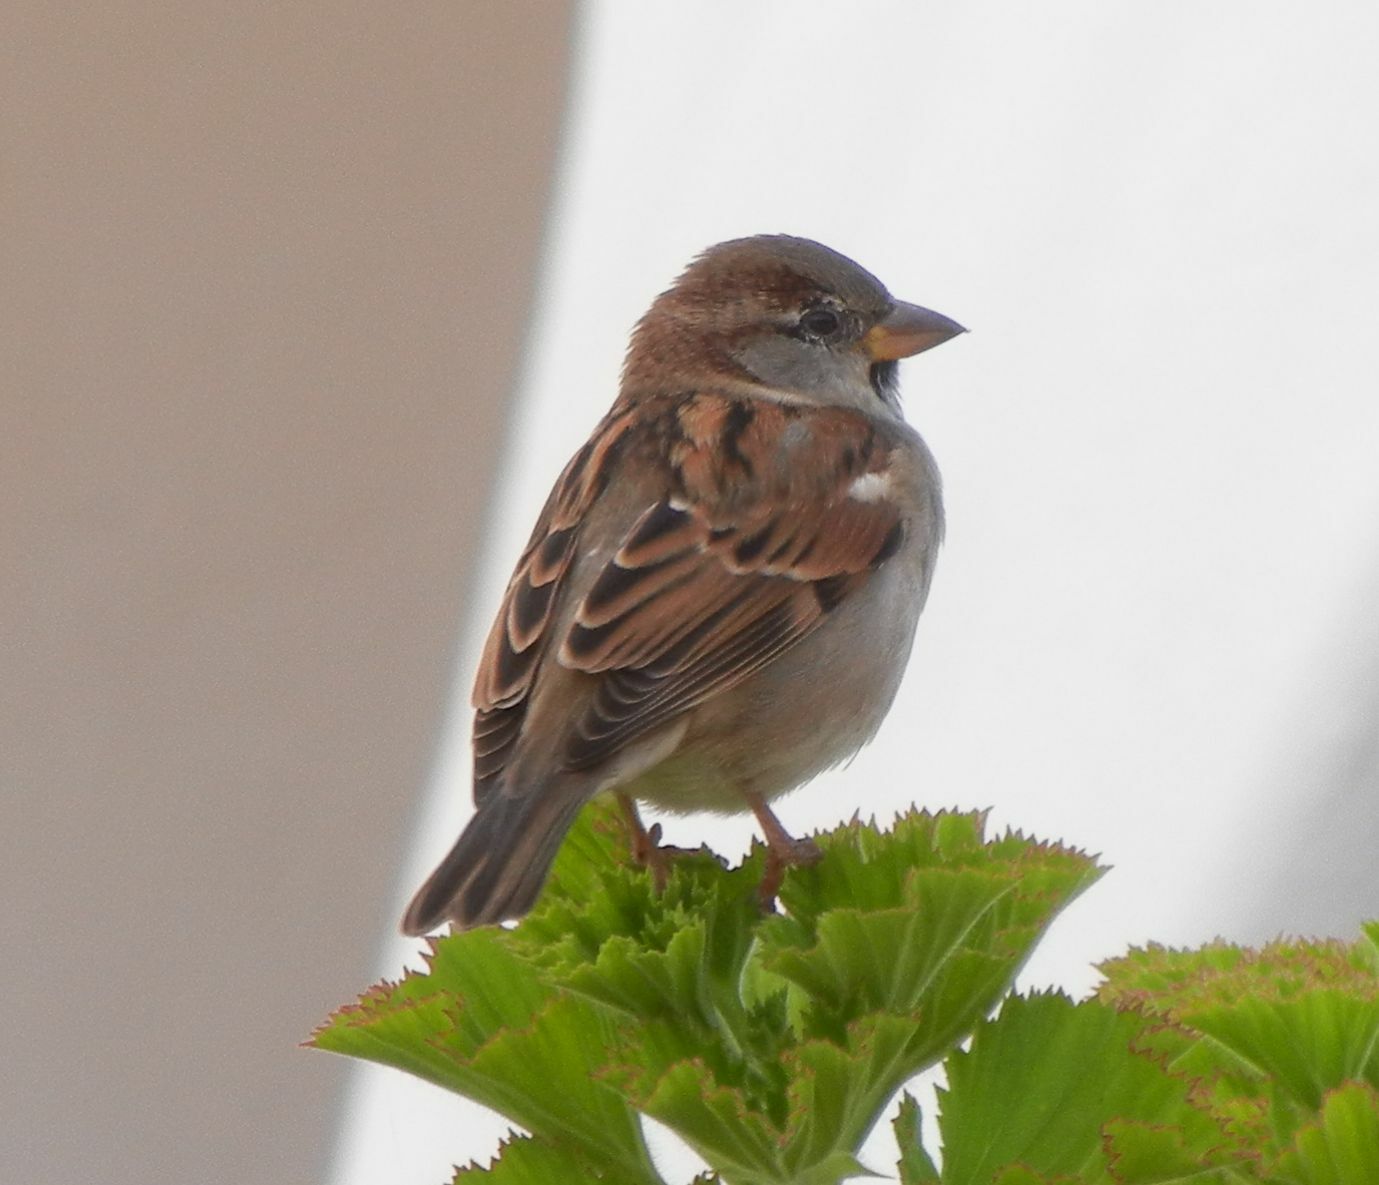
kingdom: Animalia
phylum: Chordata
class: Aves
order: Passeriformes
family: Passeridae
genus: Passer
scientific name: Passer domesticus
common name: House sparrow
